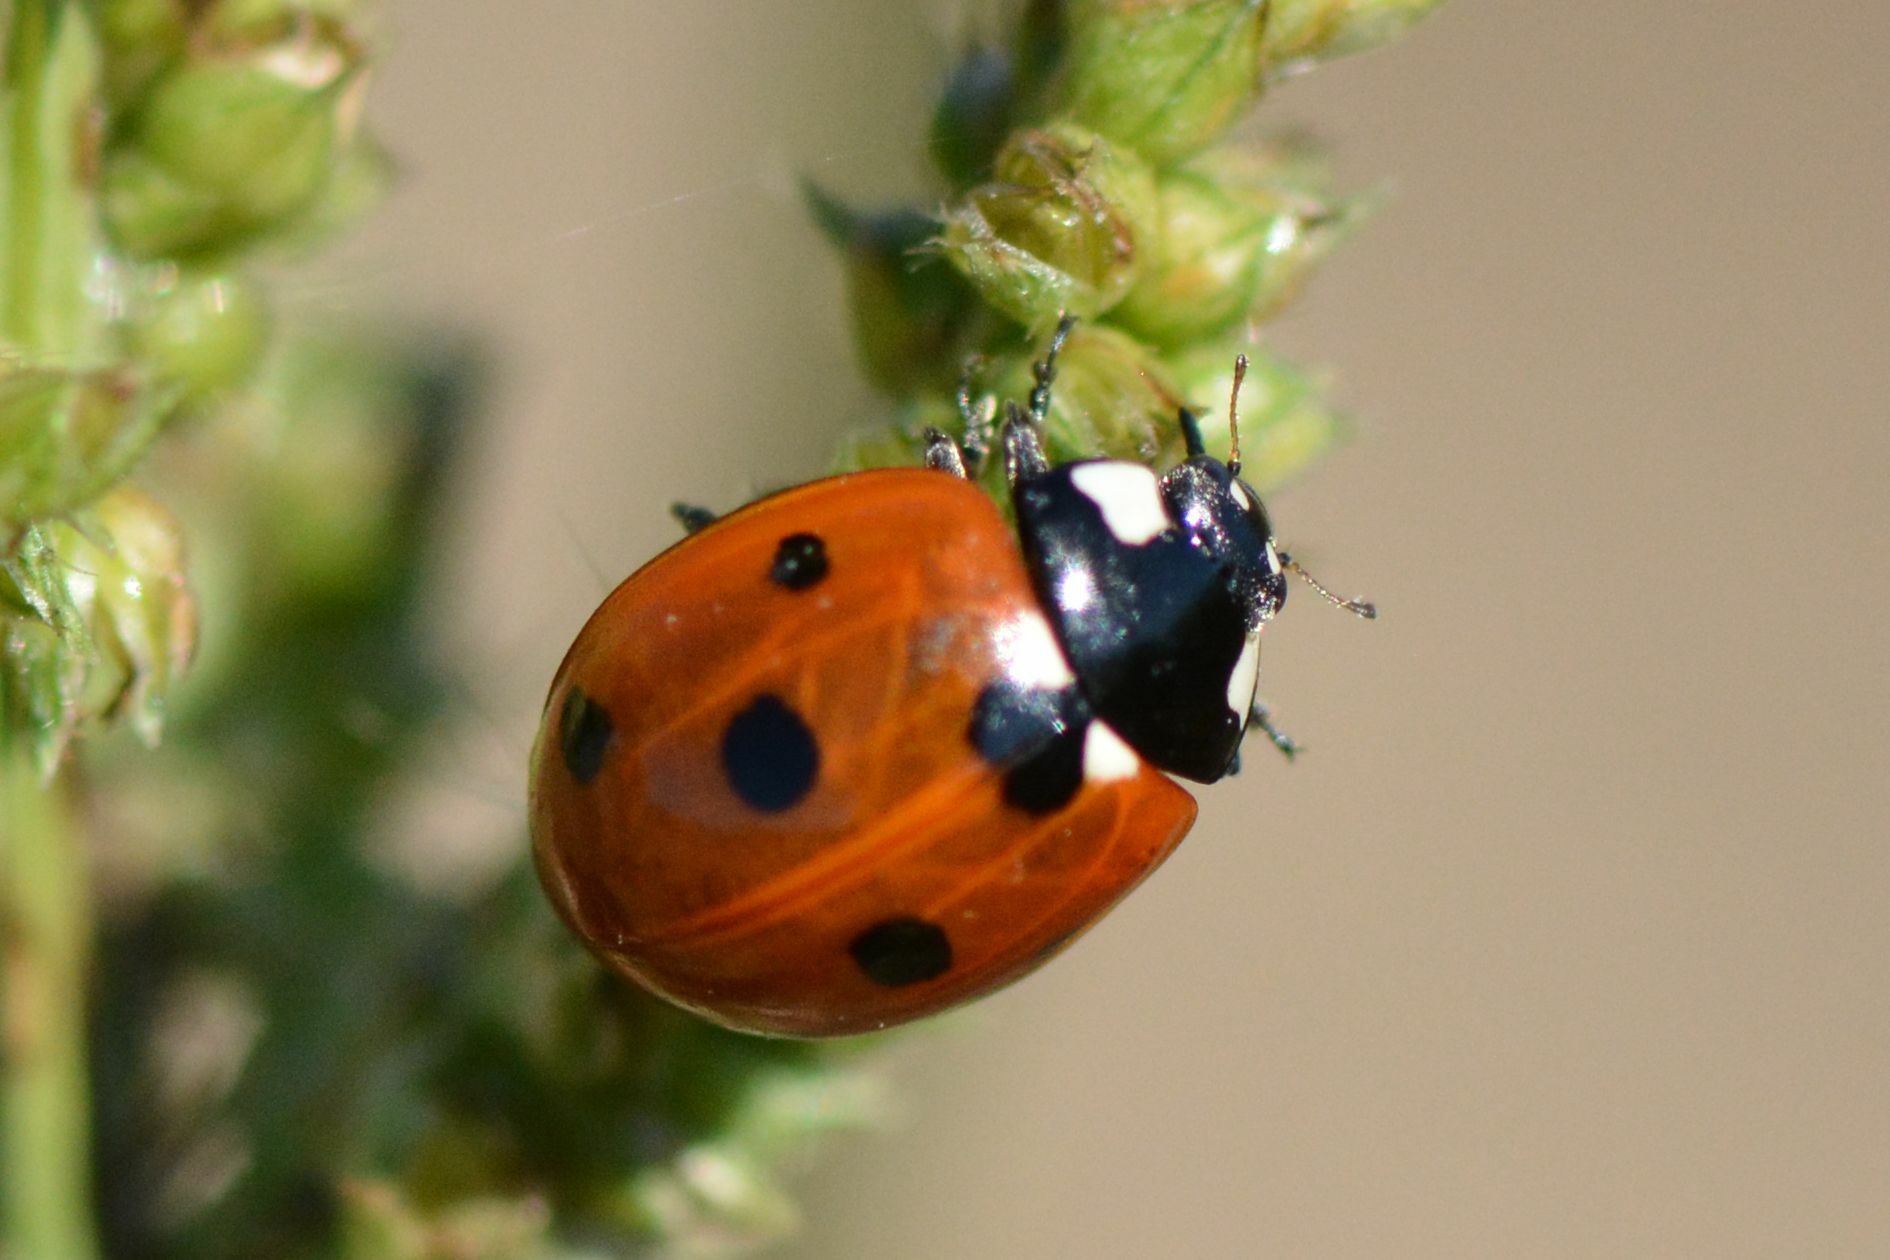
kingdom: Animalia
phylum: Arthropoda
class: Insecta
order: Coleoptera
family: Coccinellidae
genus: Coccinella
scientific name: Coccinella septempunctata
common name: Sevenspotted lady beetle
